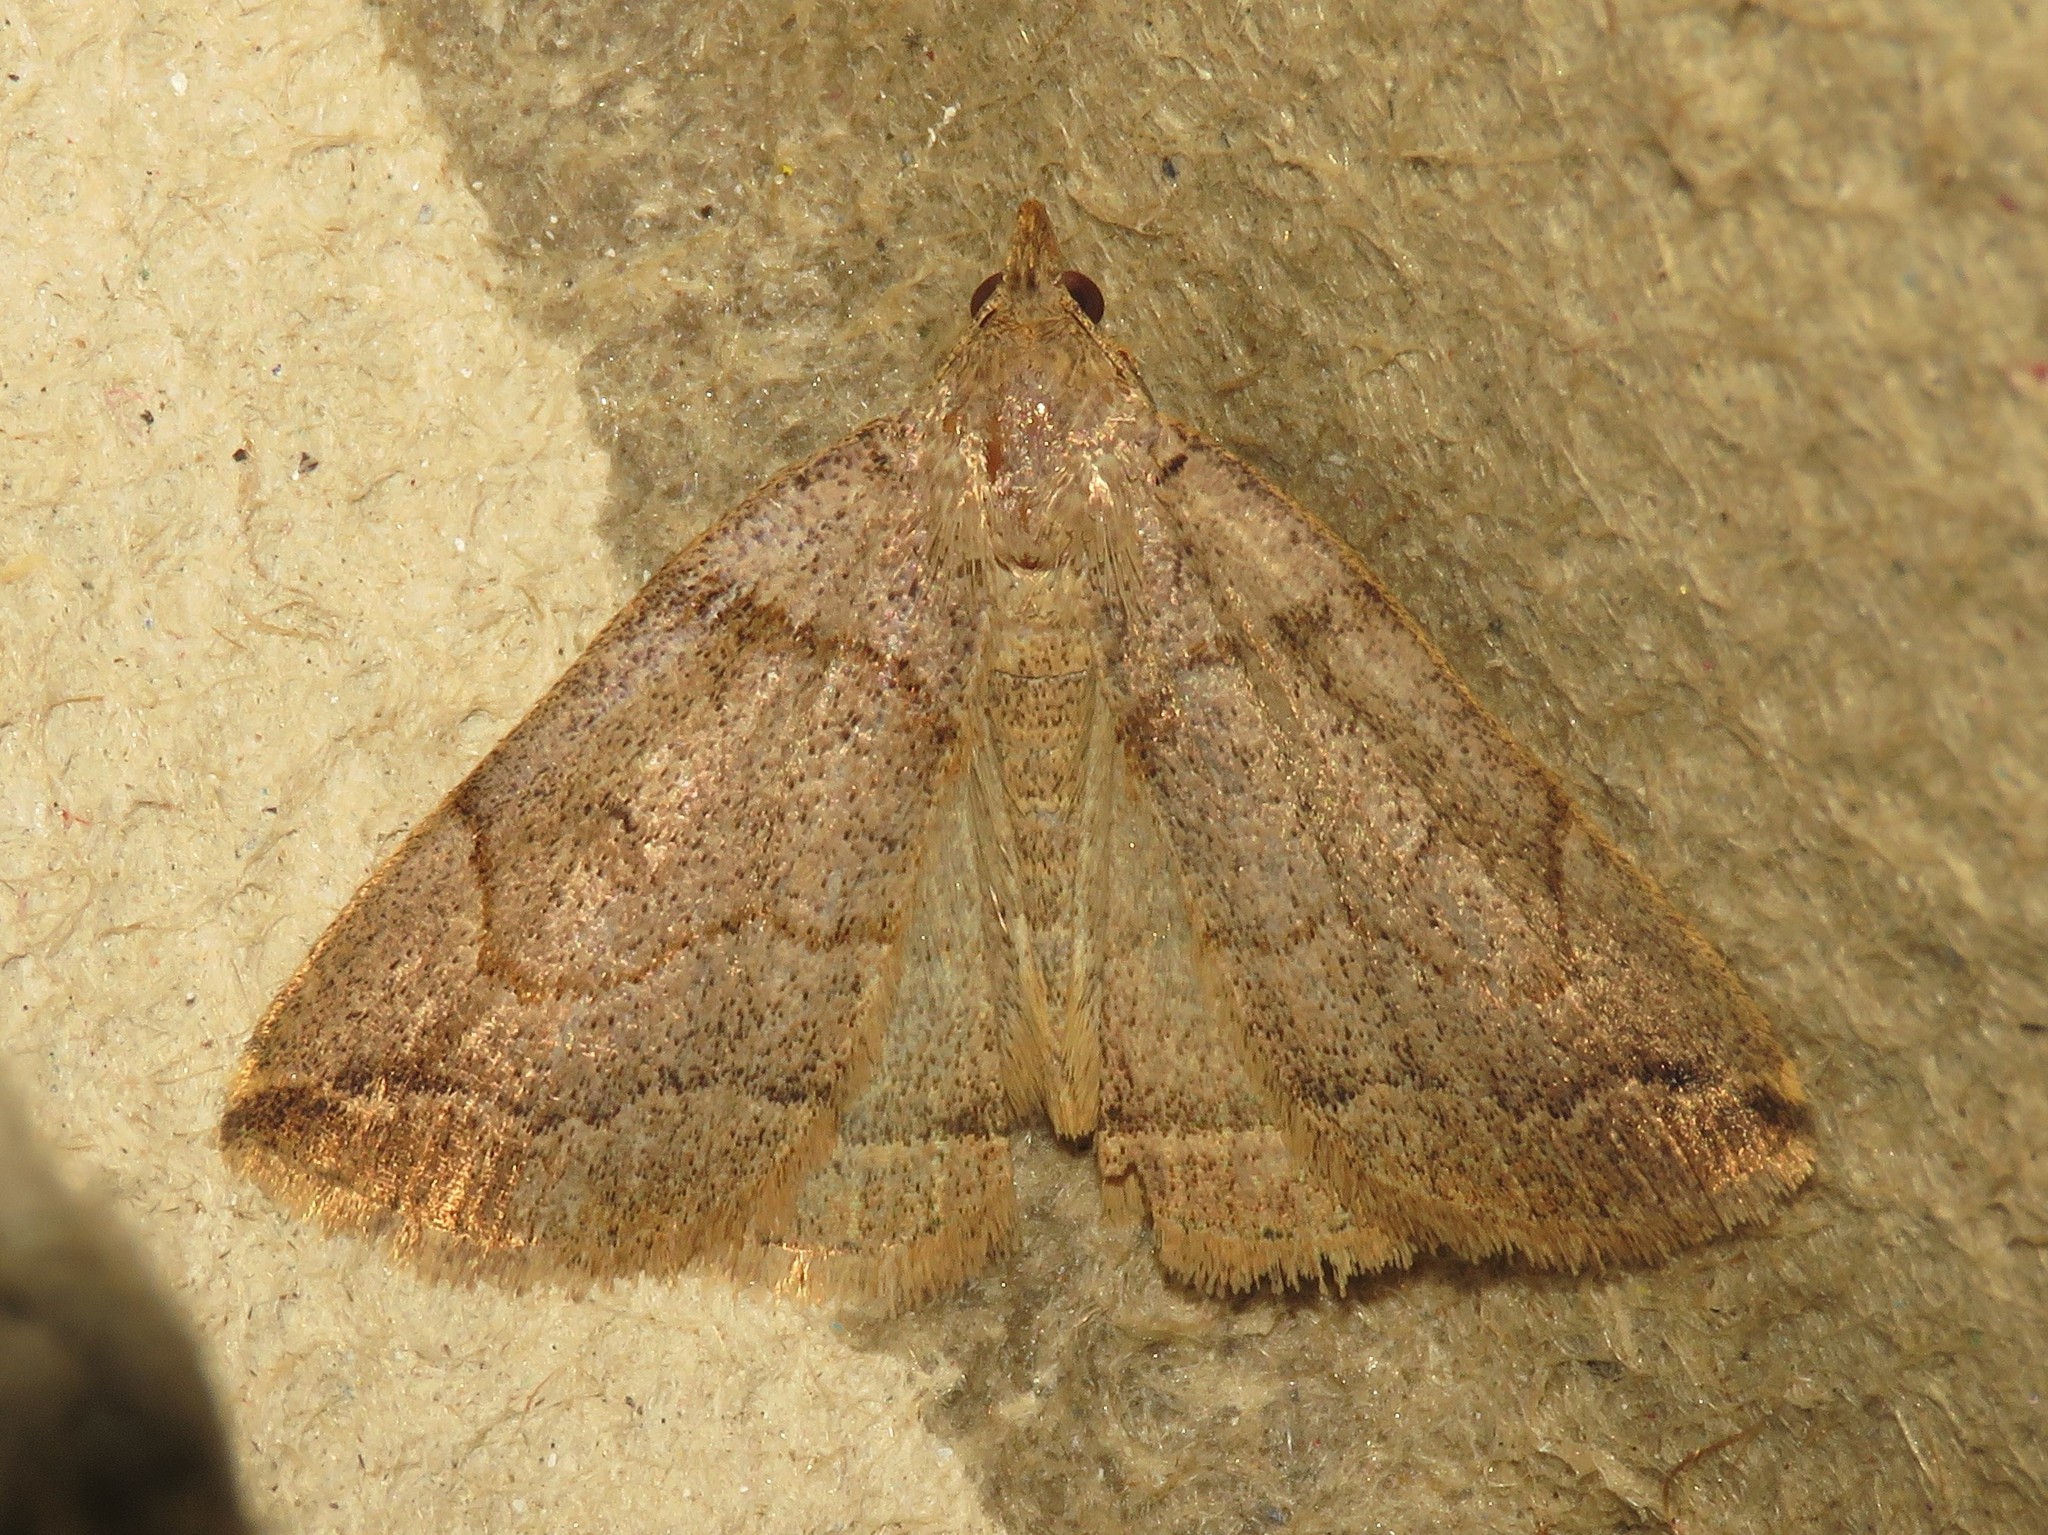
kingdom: Animalia
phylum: Arthropoda
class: Insecta
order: Lepidoptera
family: Erebidae
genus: Zanclognatha
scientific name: Zanclognatha laevigata
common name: Variable fan-foot
